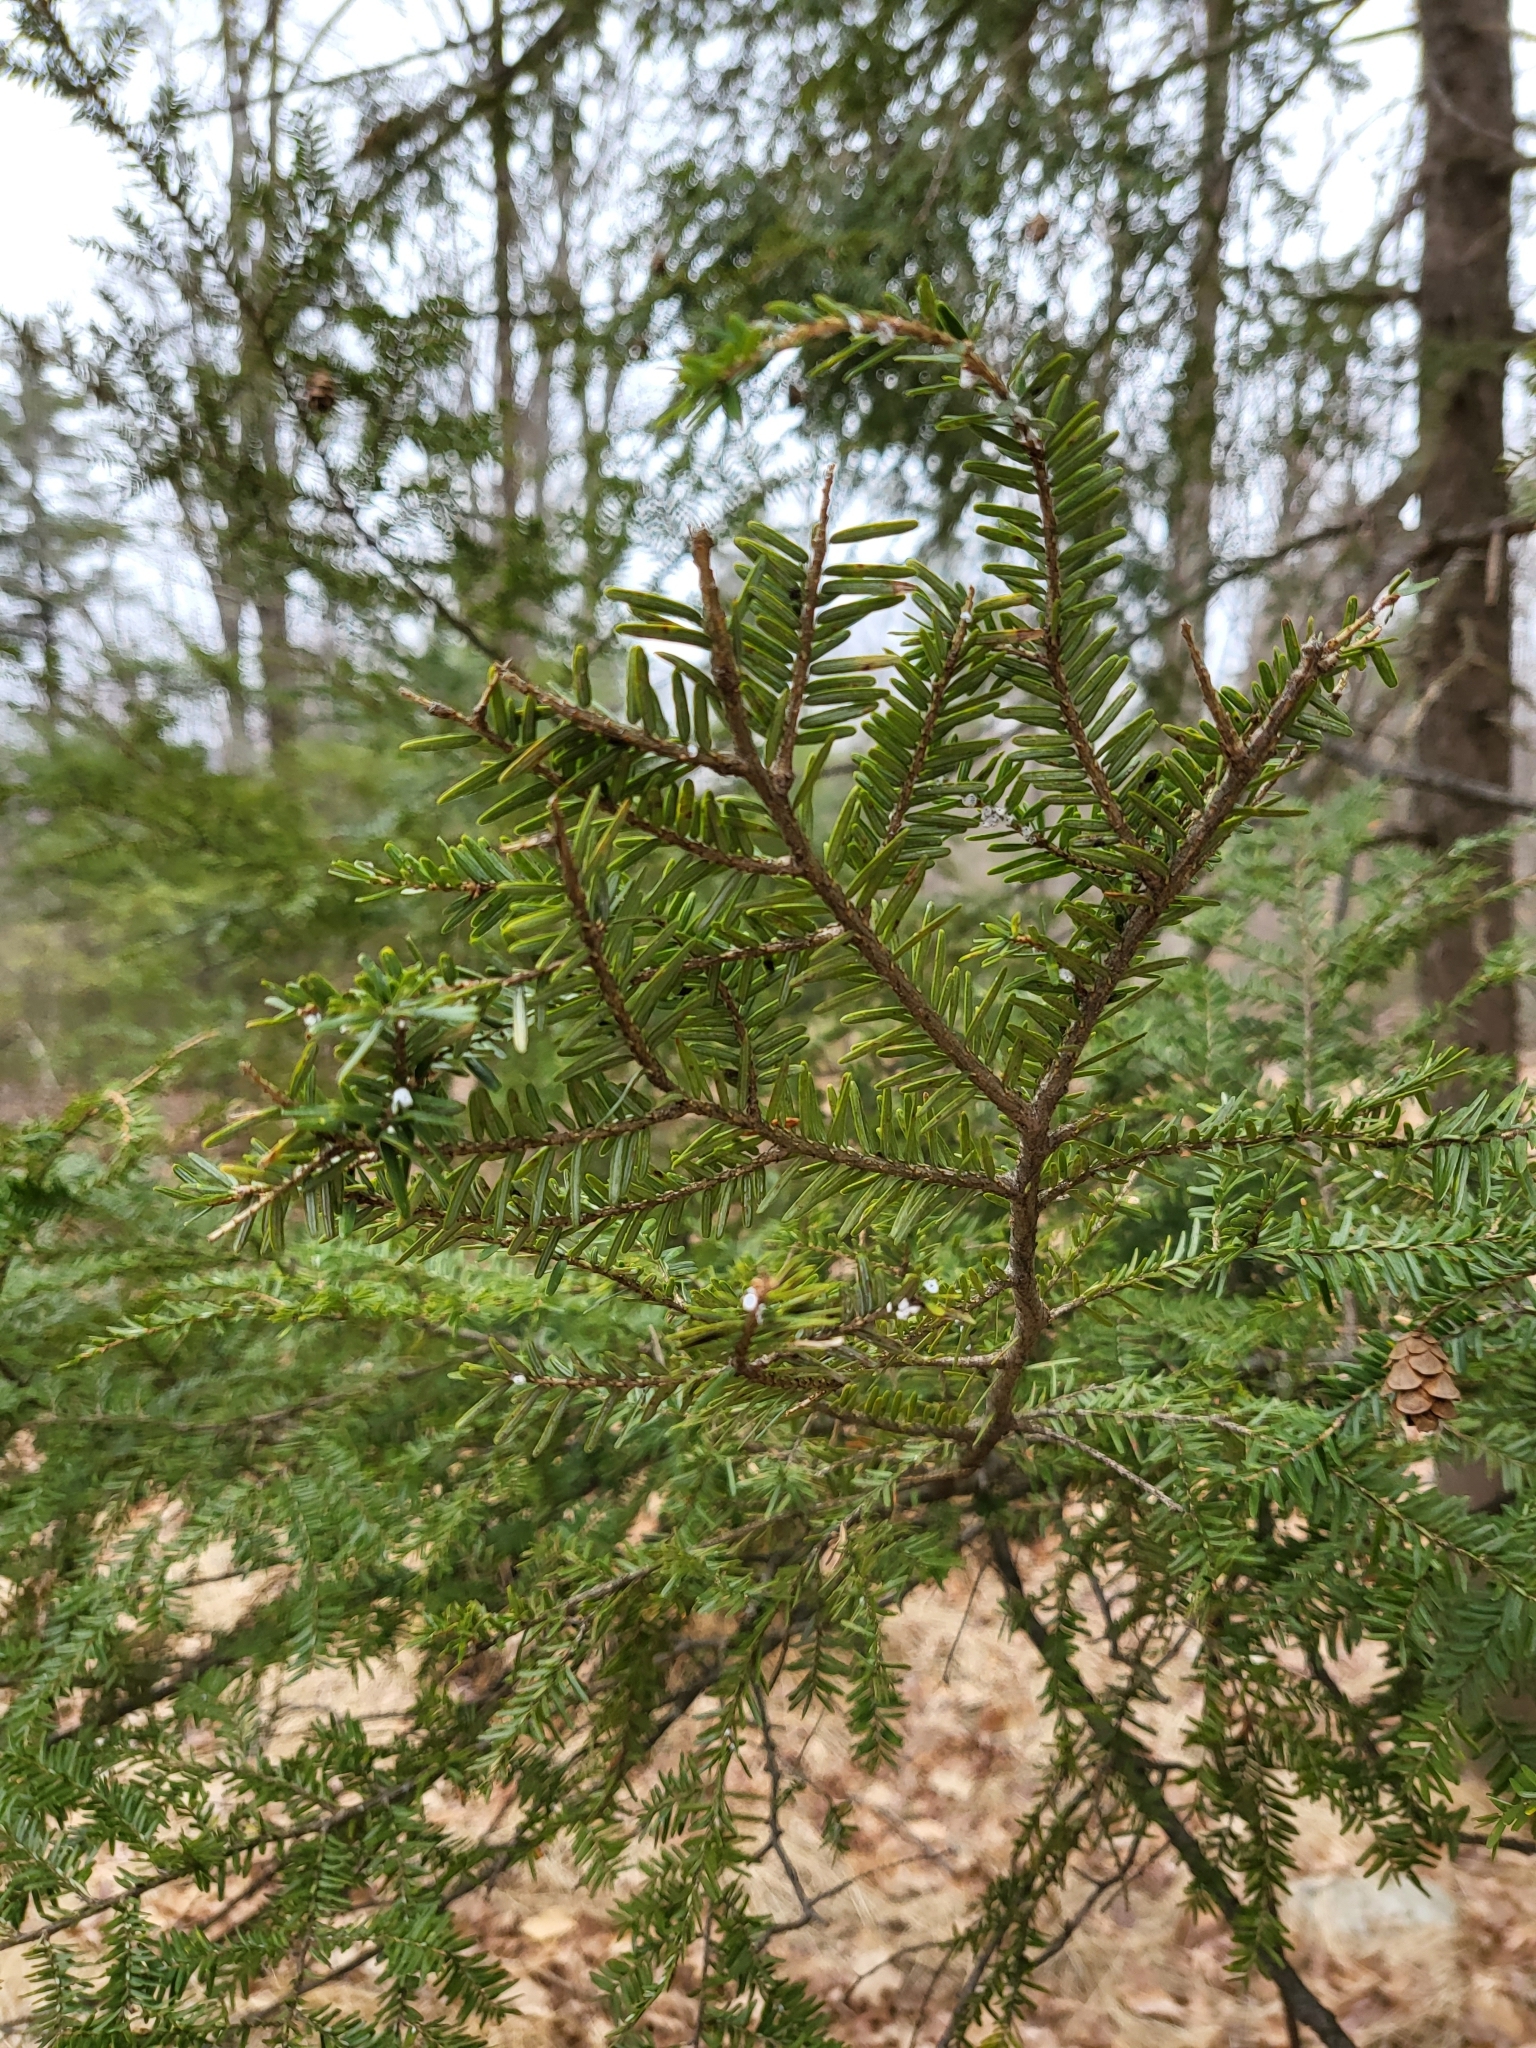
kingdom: Animalia
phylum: Arthropoda
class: Insecta
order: Hemiptera
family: Adelgidae
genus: Adelges
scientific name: Adelges tsugae
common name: Hemlock woolly adelgid
